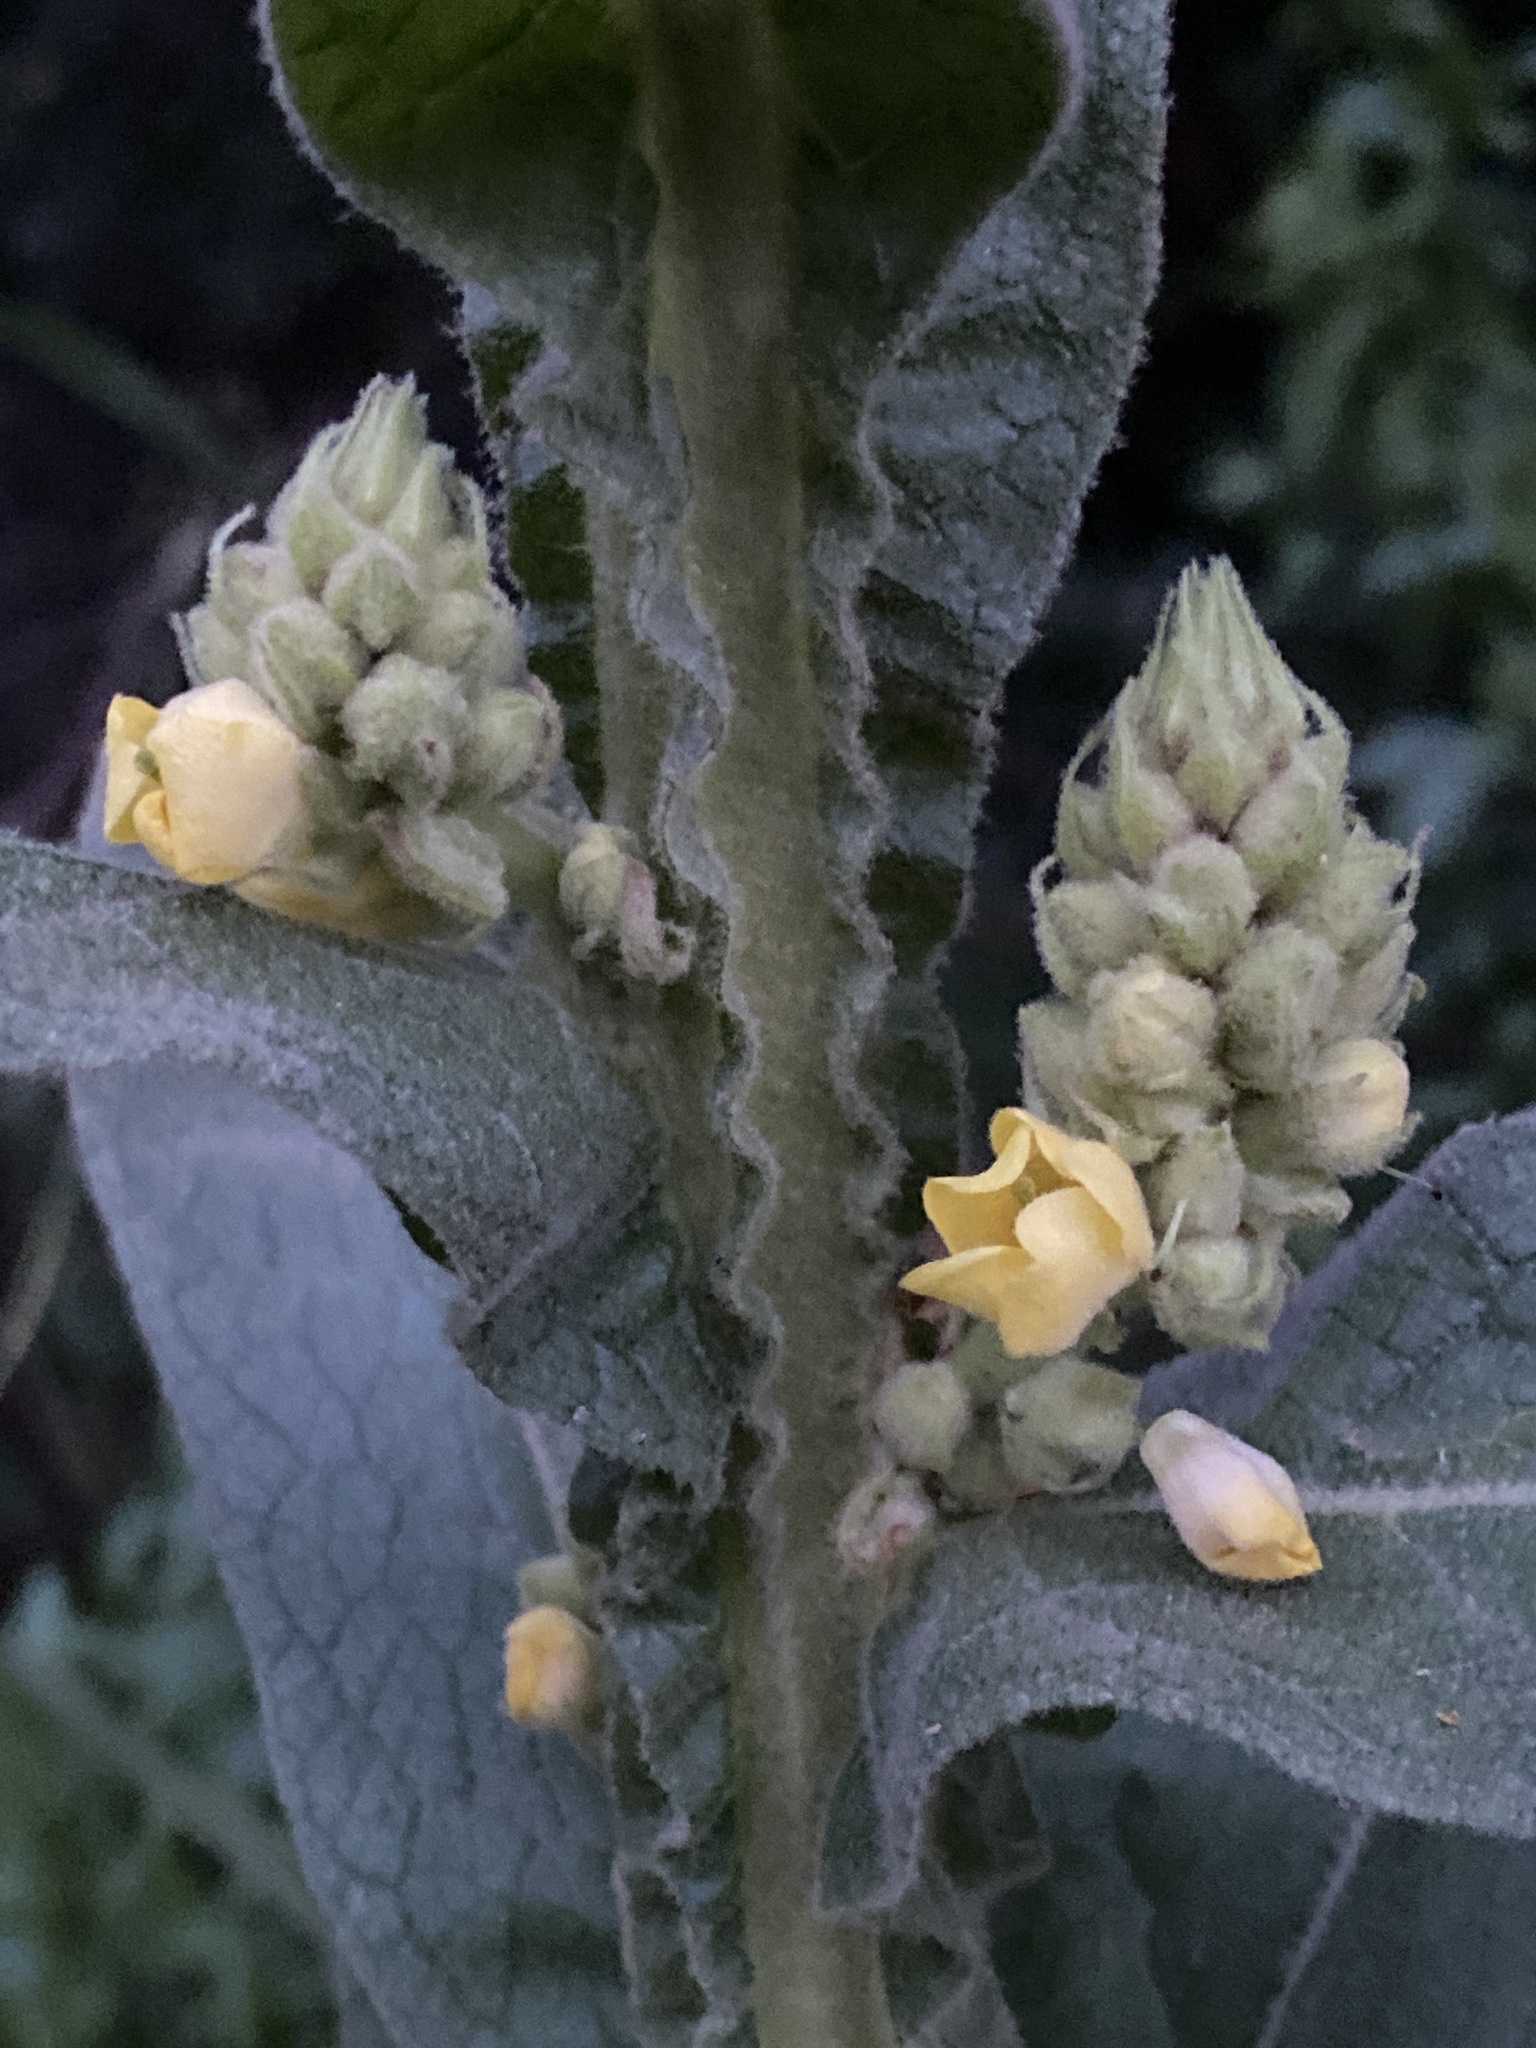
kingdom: Plantae
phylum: Tracheophyta
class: Magnoliopsida
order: Lamiales
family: Scrophulariaceae
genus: Verbascum
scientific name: Verbascum thapsus
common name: Common mullein
